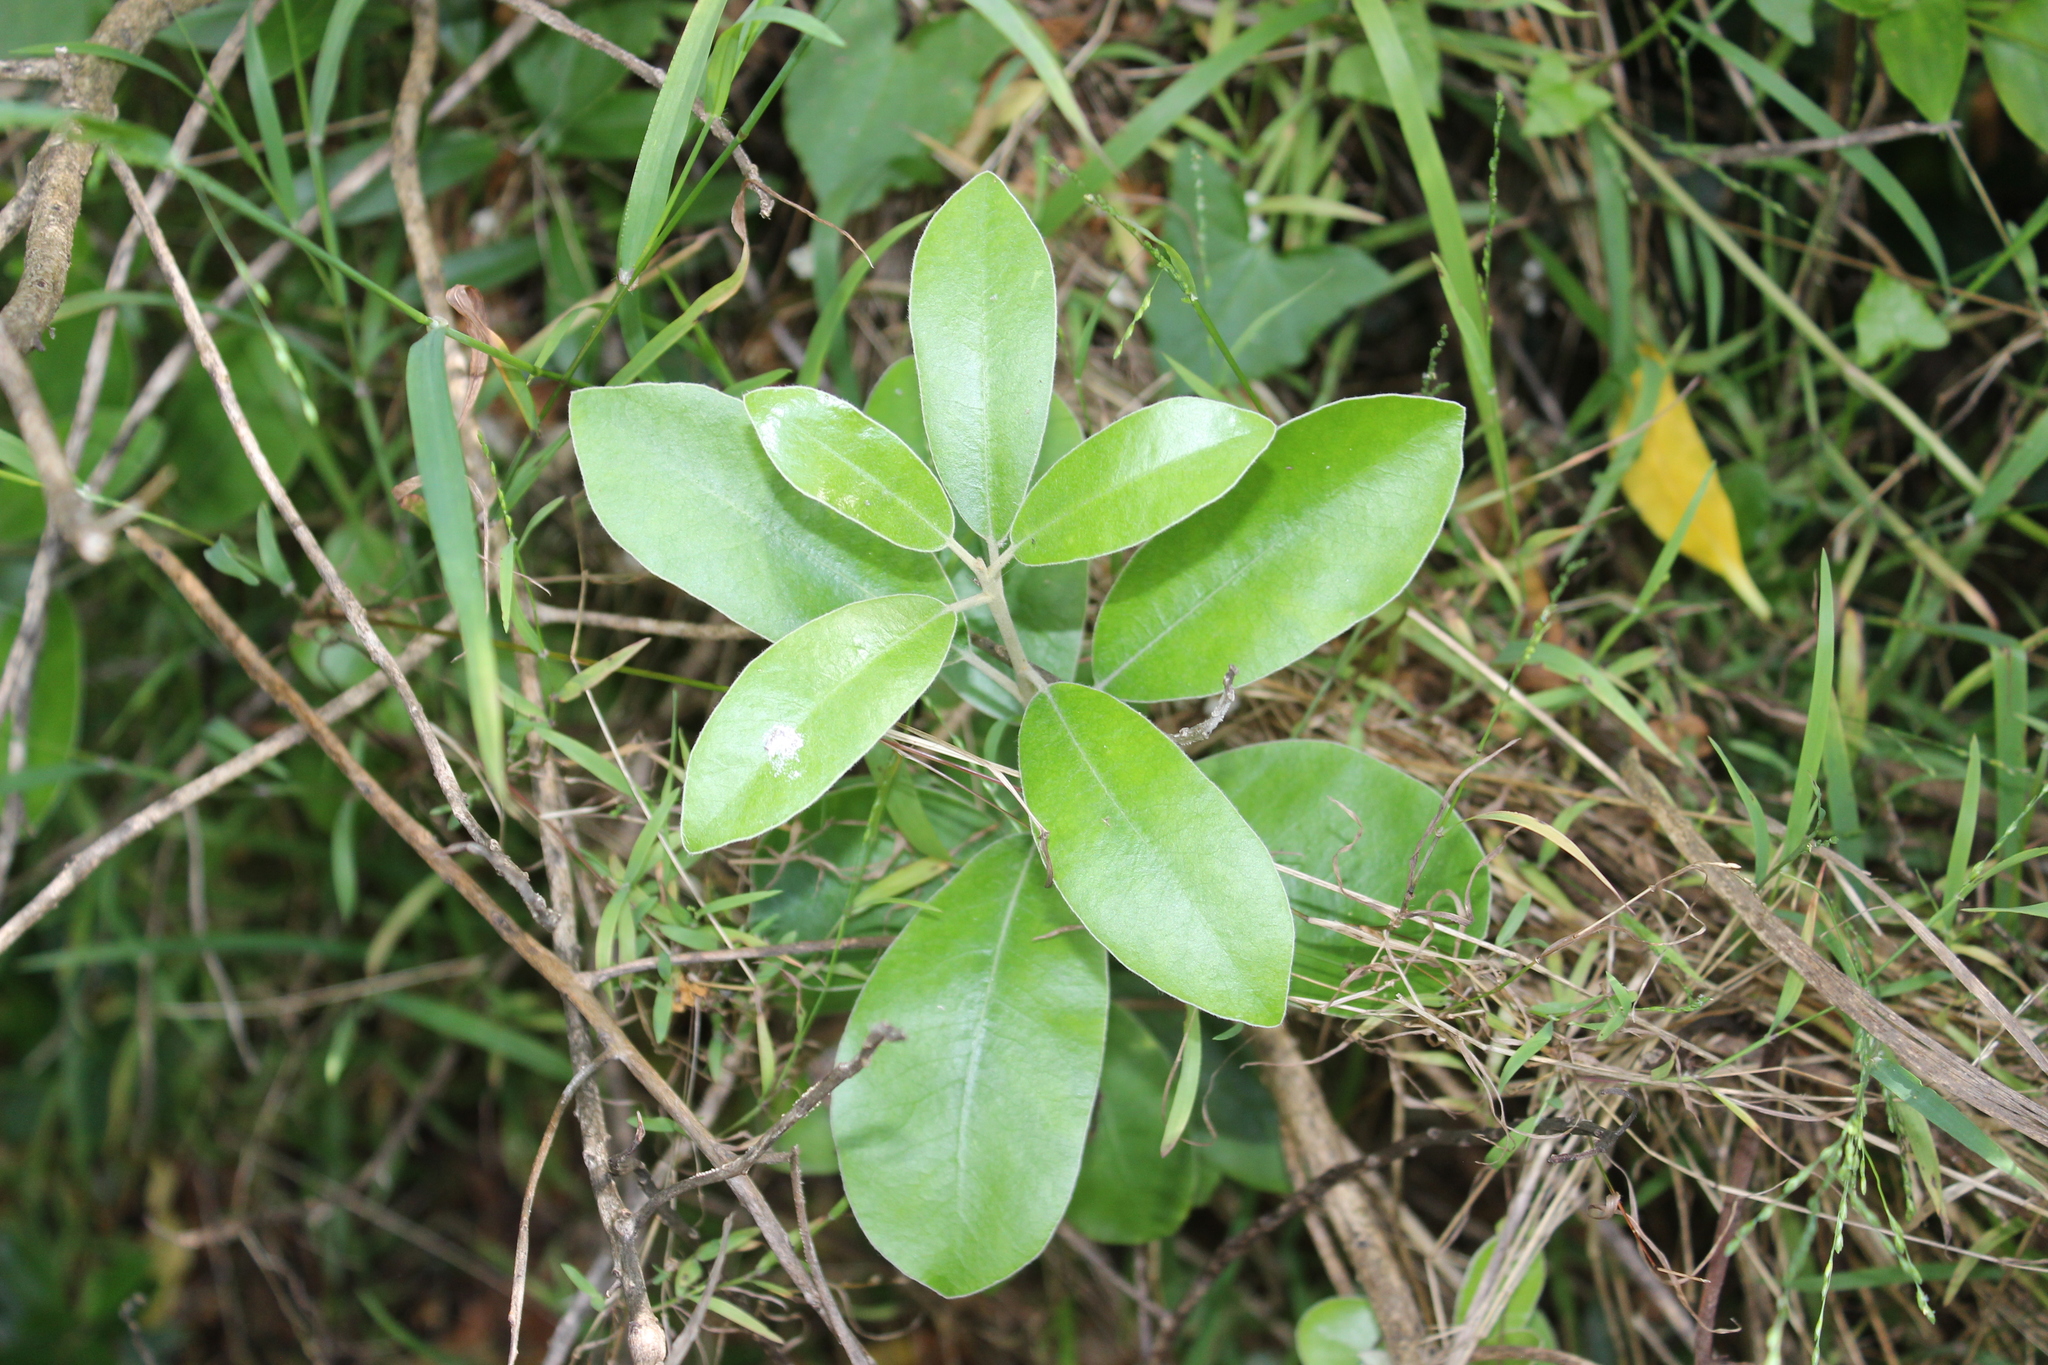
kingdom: Plantae
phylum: Tracheophyta
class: Magnoliopsida
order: Apiales
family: Pittosporaceae
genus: Pittosporum
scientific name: Pittosporum ralphii
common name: Ralph's desertwillow
